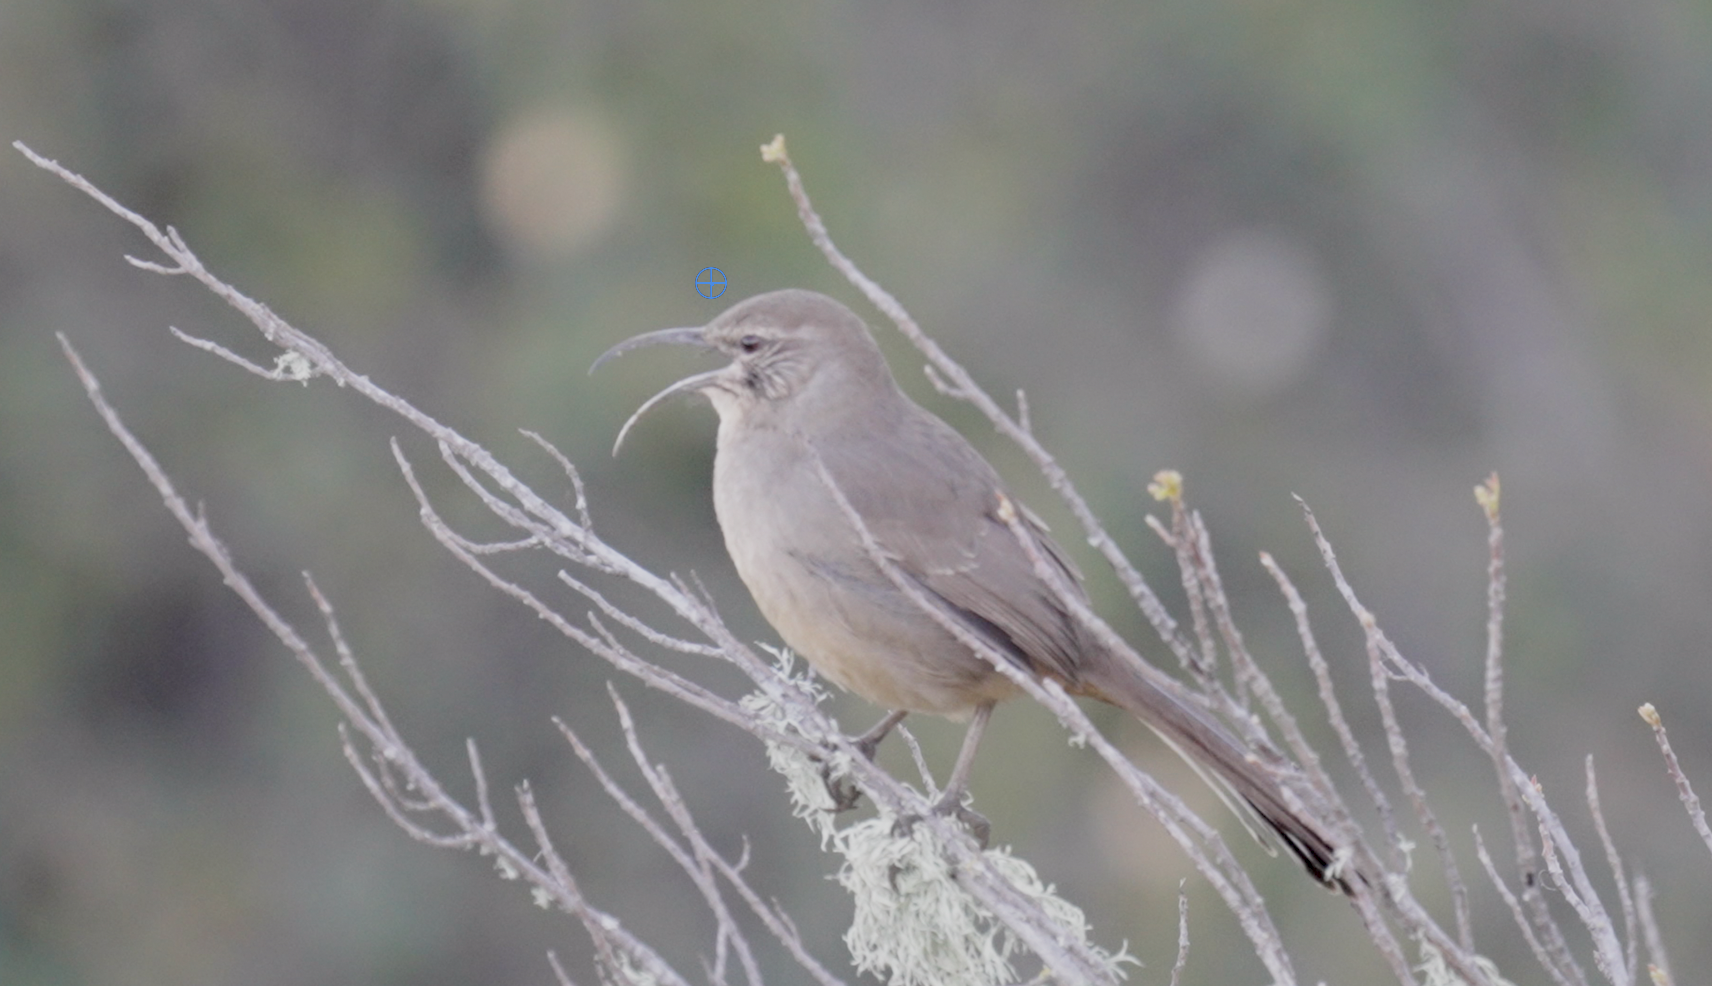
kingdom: Animalia
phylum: Chordata
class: Aves
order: Passeriformes
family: Mimidae
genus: Toxostoma
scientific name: Toxostoma redivivum
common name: California thrasher
